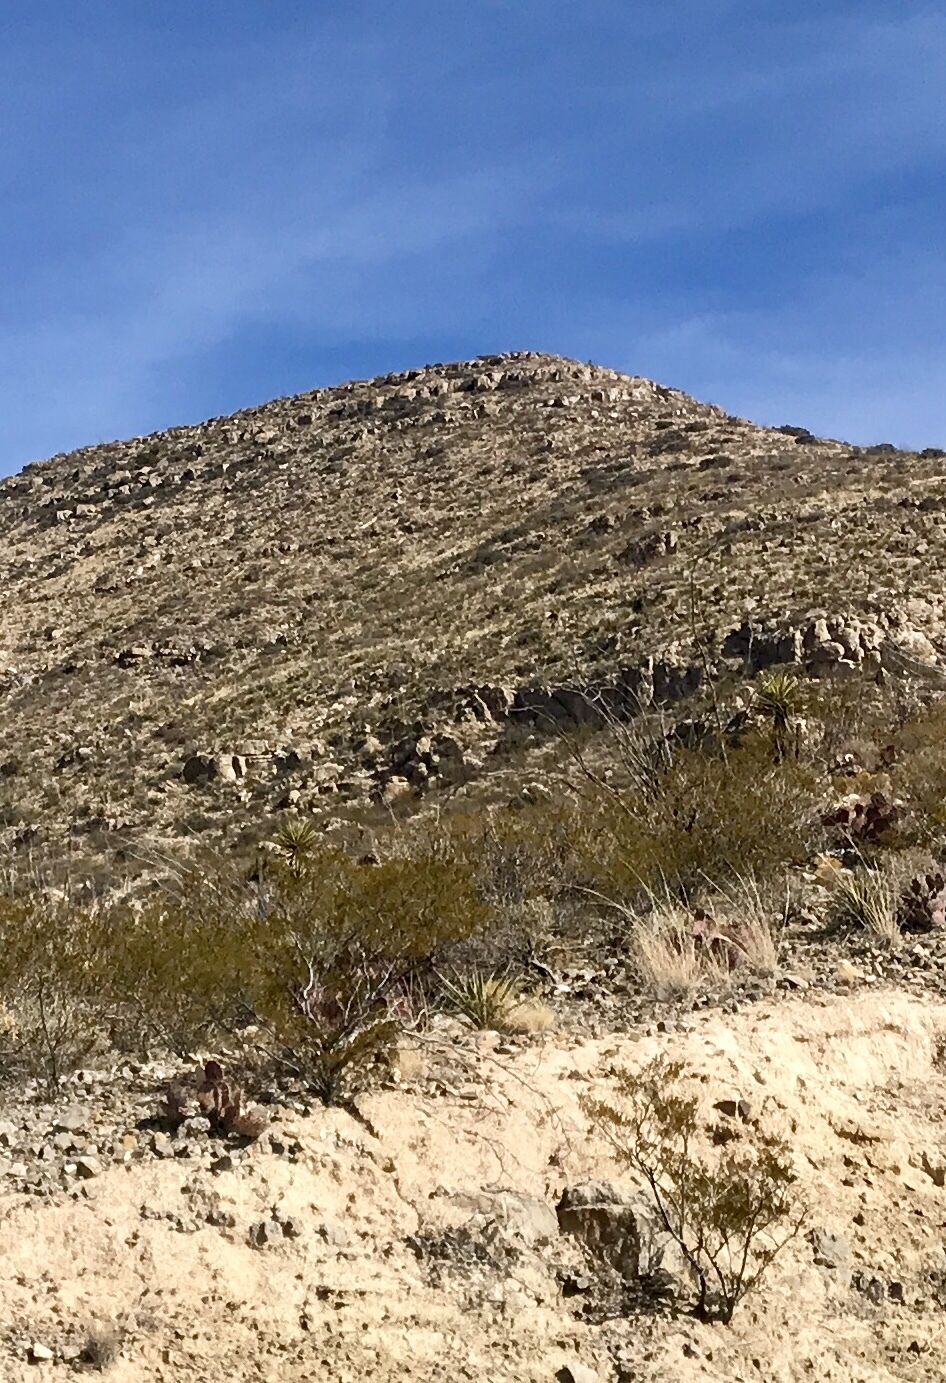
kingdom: Plantae
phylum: Tracheophyta
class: Magnoliopsida
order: Zygophyllales
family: Zygophyllaceae
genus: Larrea
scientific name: Larrea tridentata
